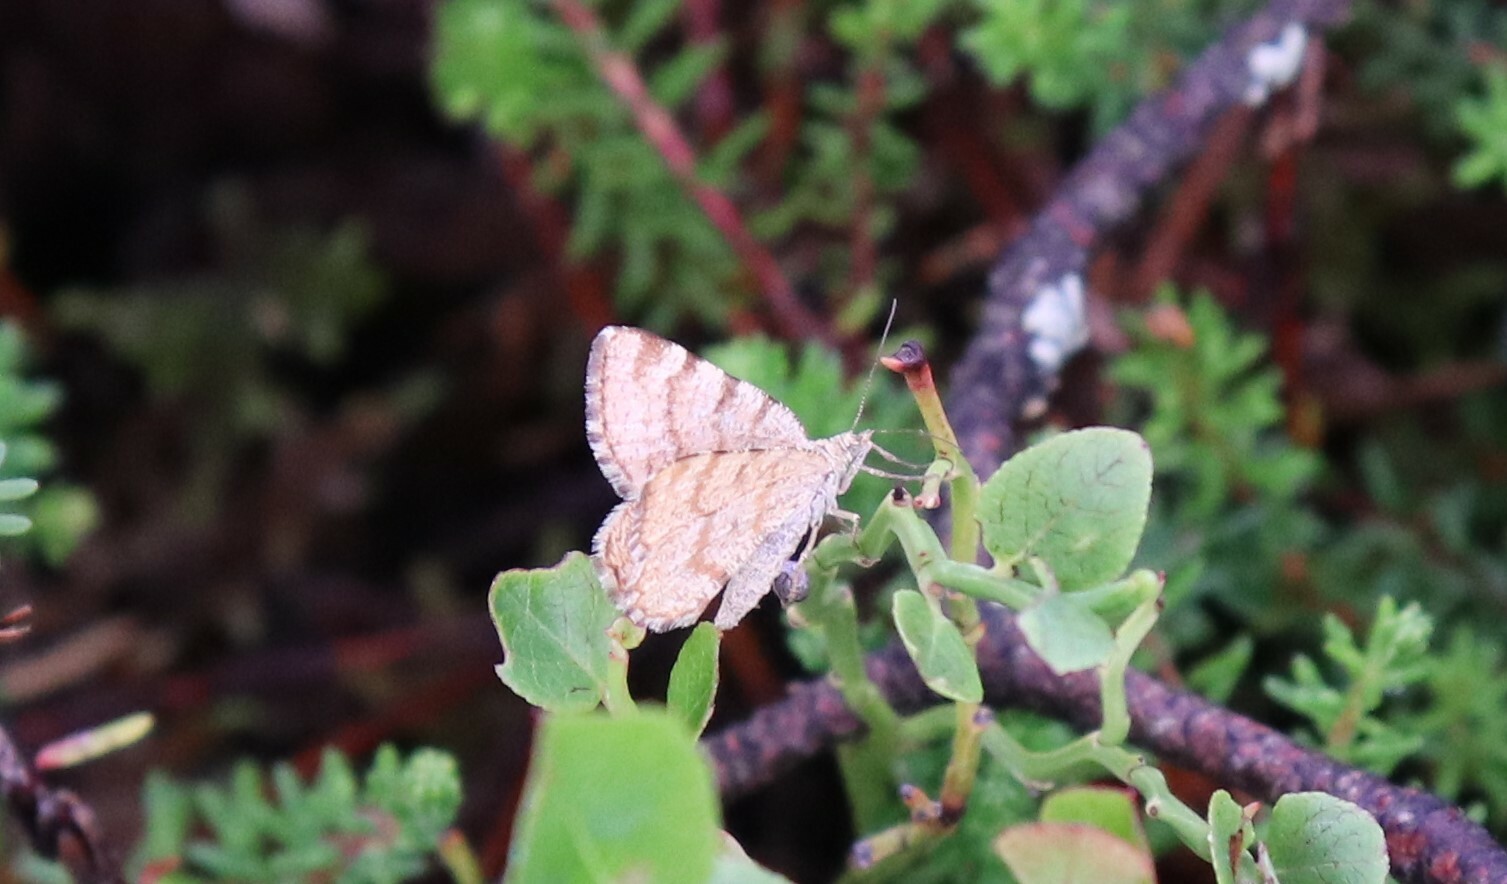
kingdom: Animalia
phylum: Arthropoda
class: Insecta
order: Lepidoptera
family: Geometridae
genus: Macaria
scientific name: Macaria brunneata
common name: Rannoch looper
